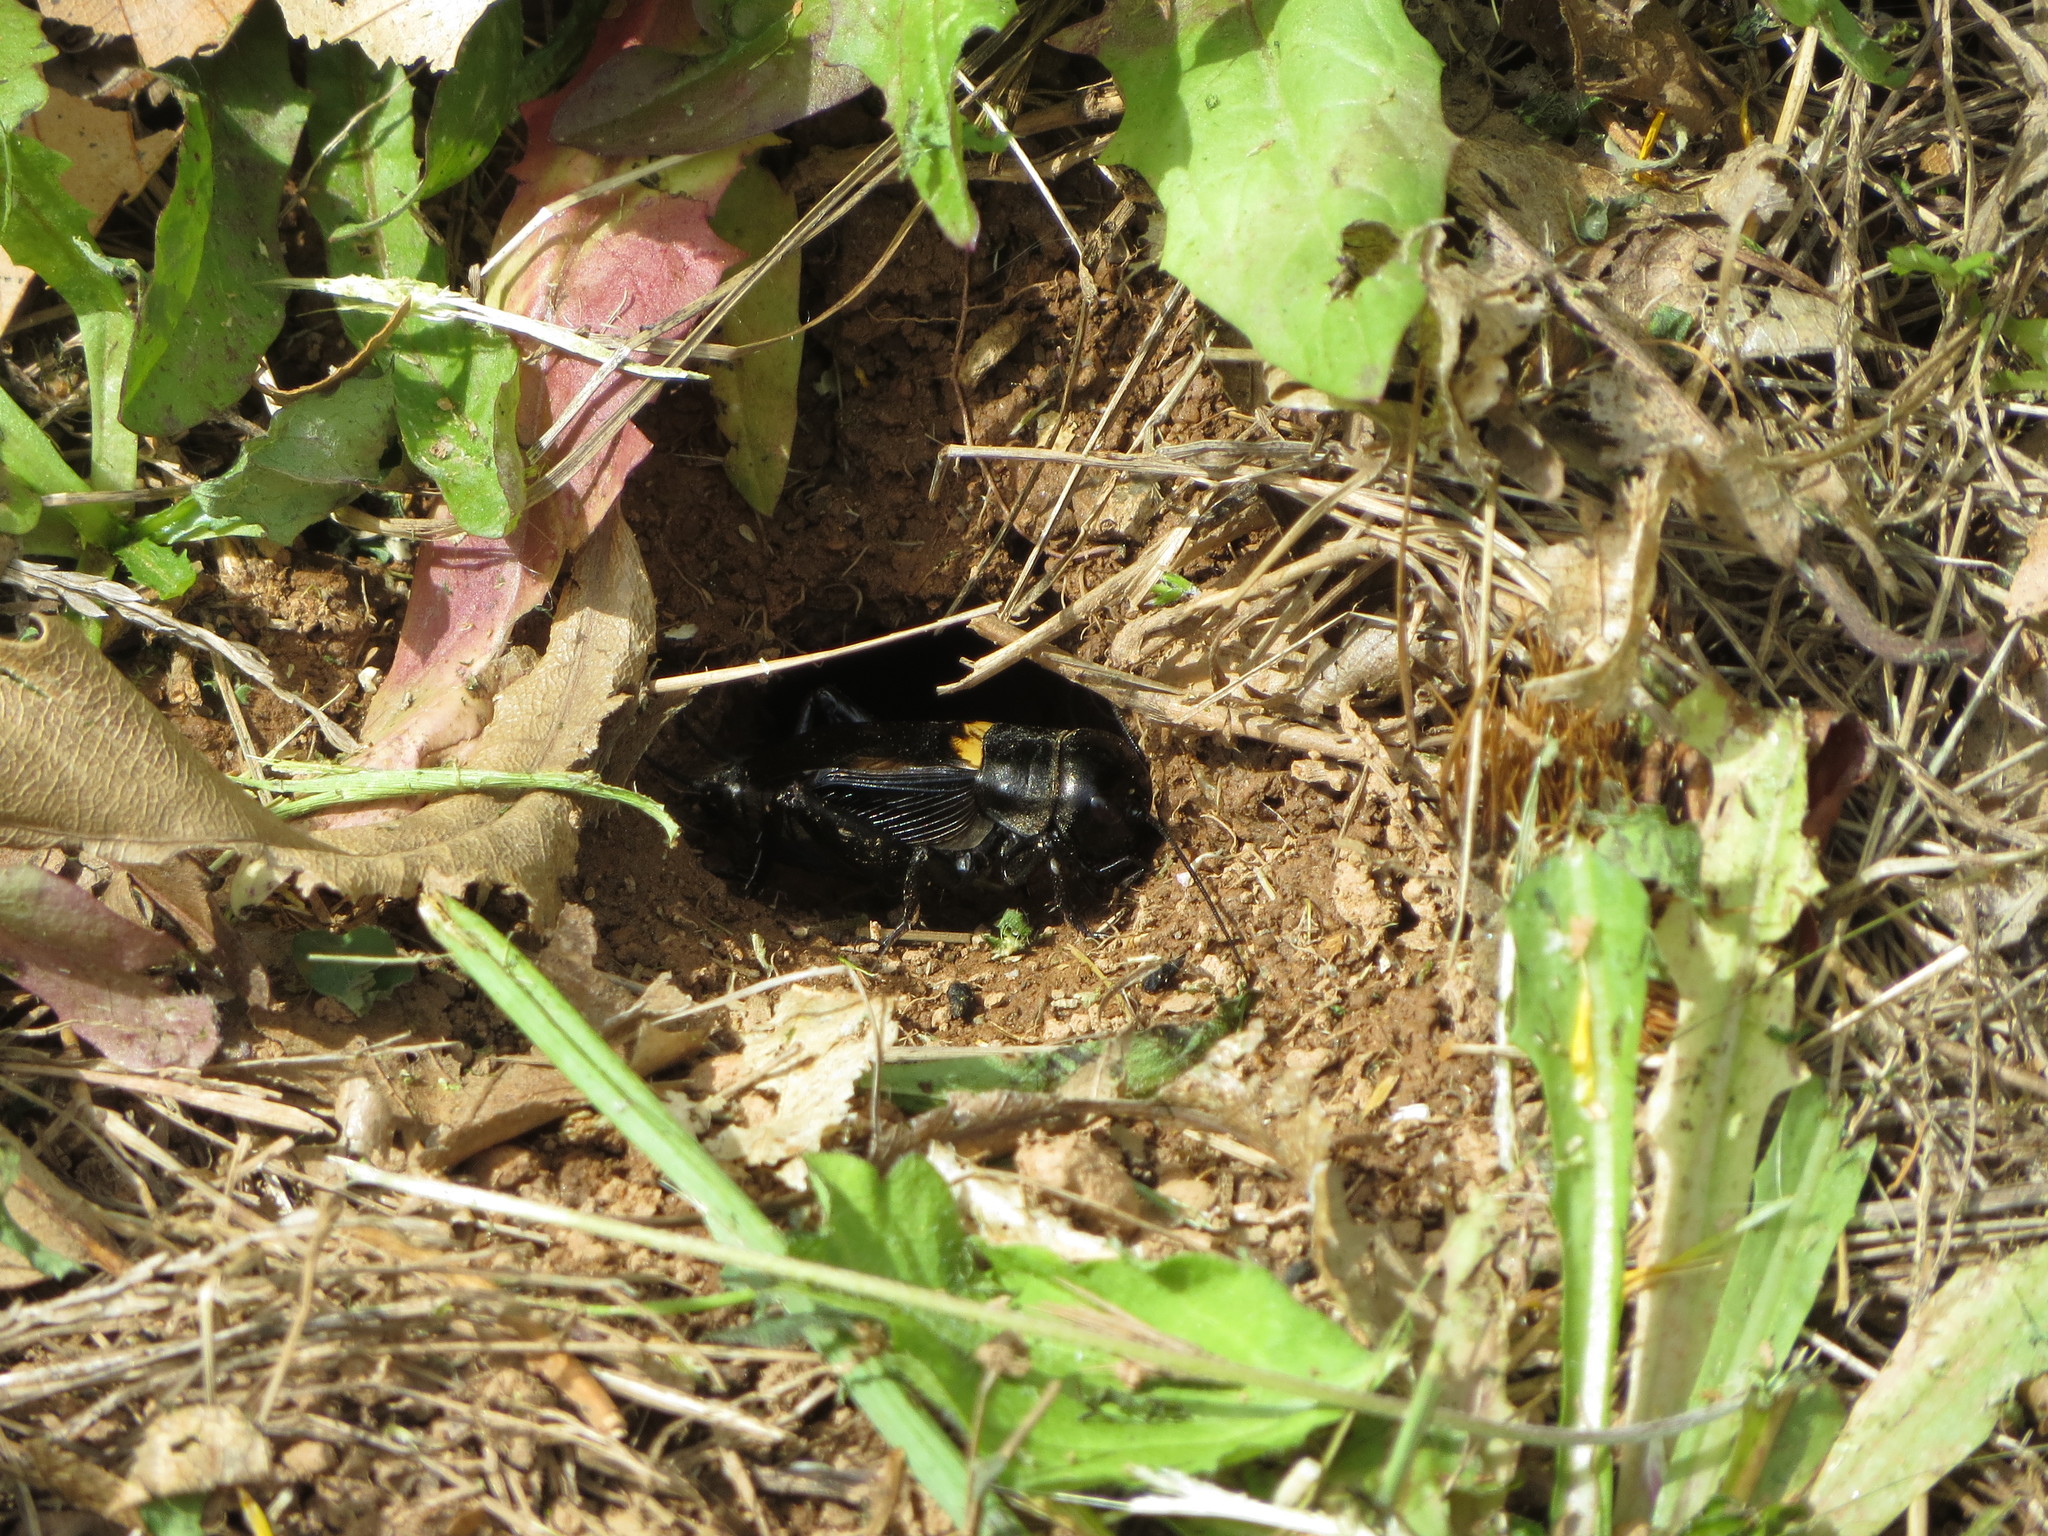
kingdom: Animalia
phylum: Arthropoda
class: Insecta
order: Orthoptera
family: Gryllidae
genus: Gryllus
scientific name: Gryllus campestris
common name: Field cricket
